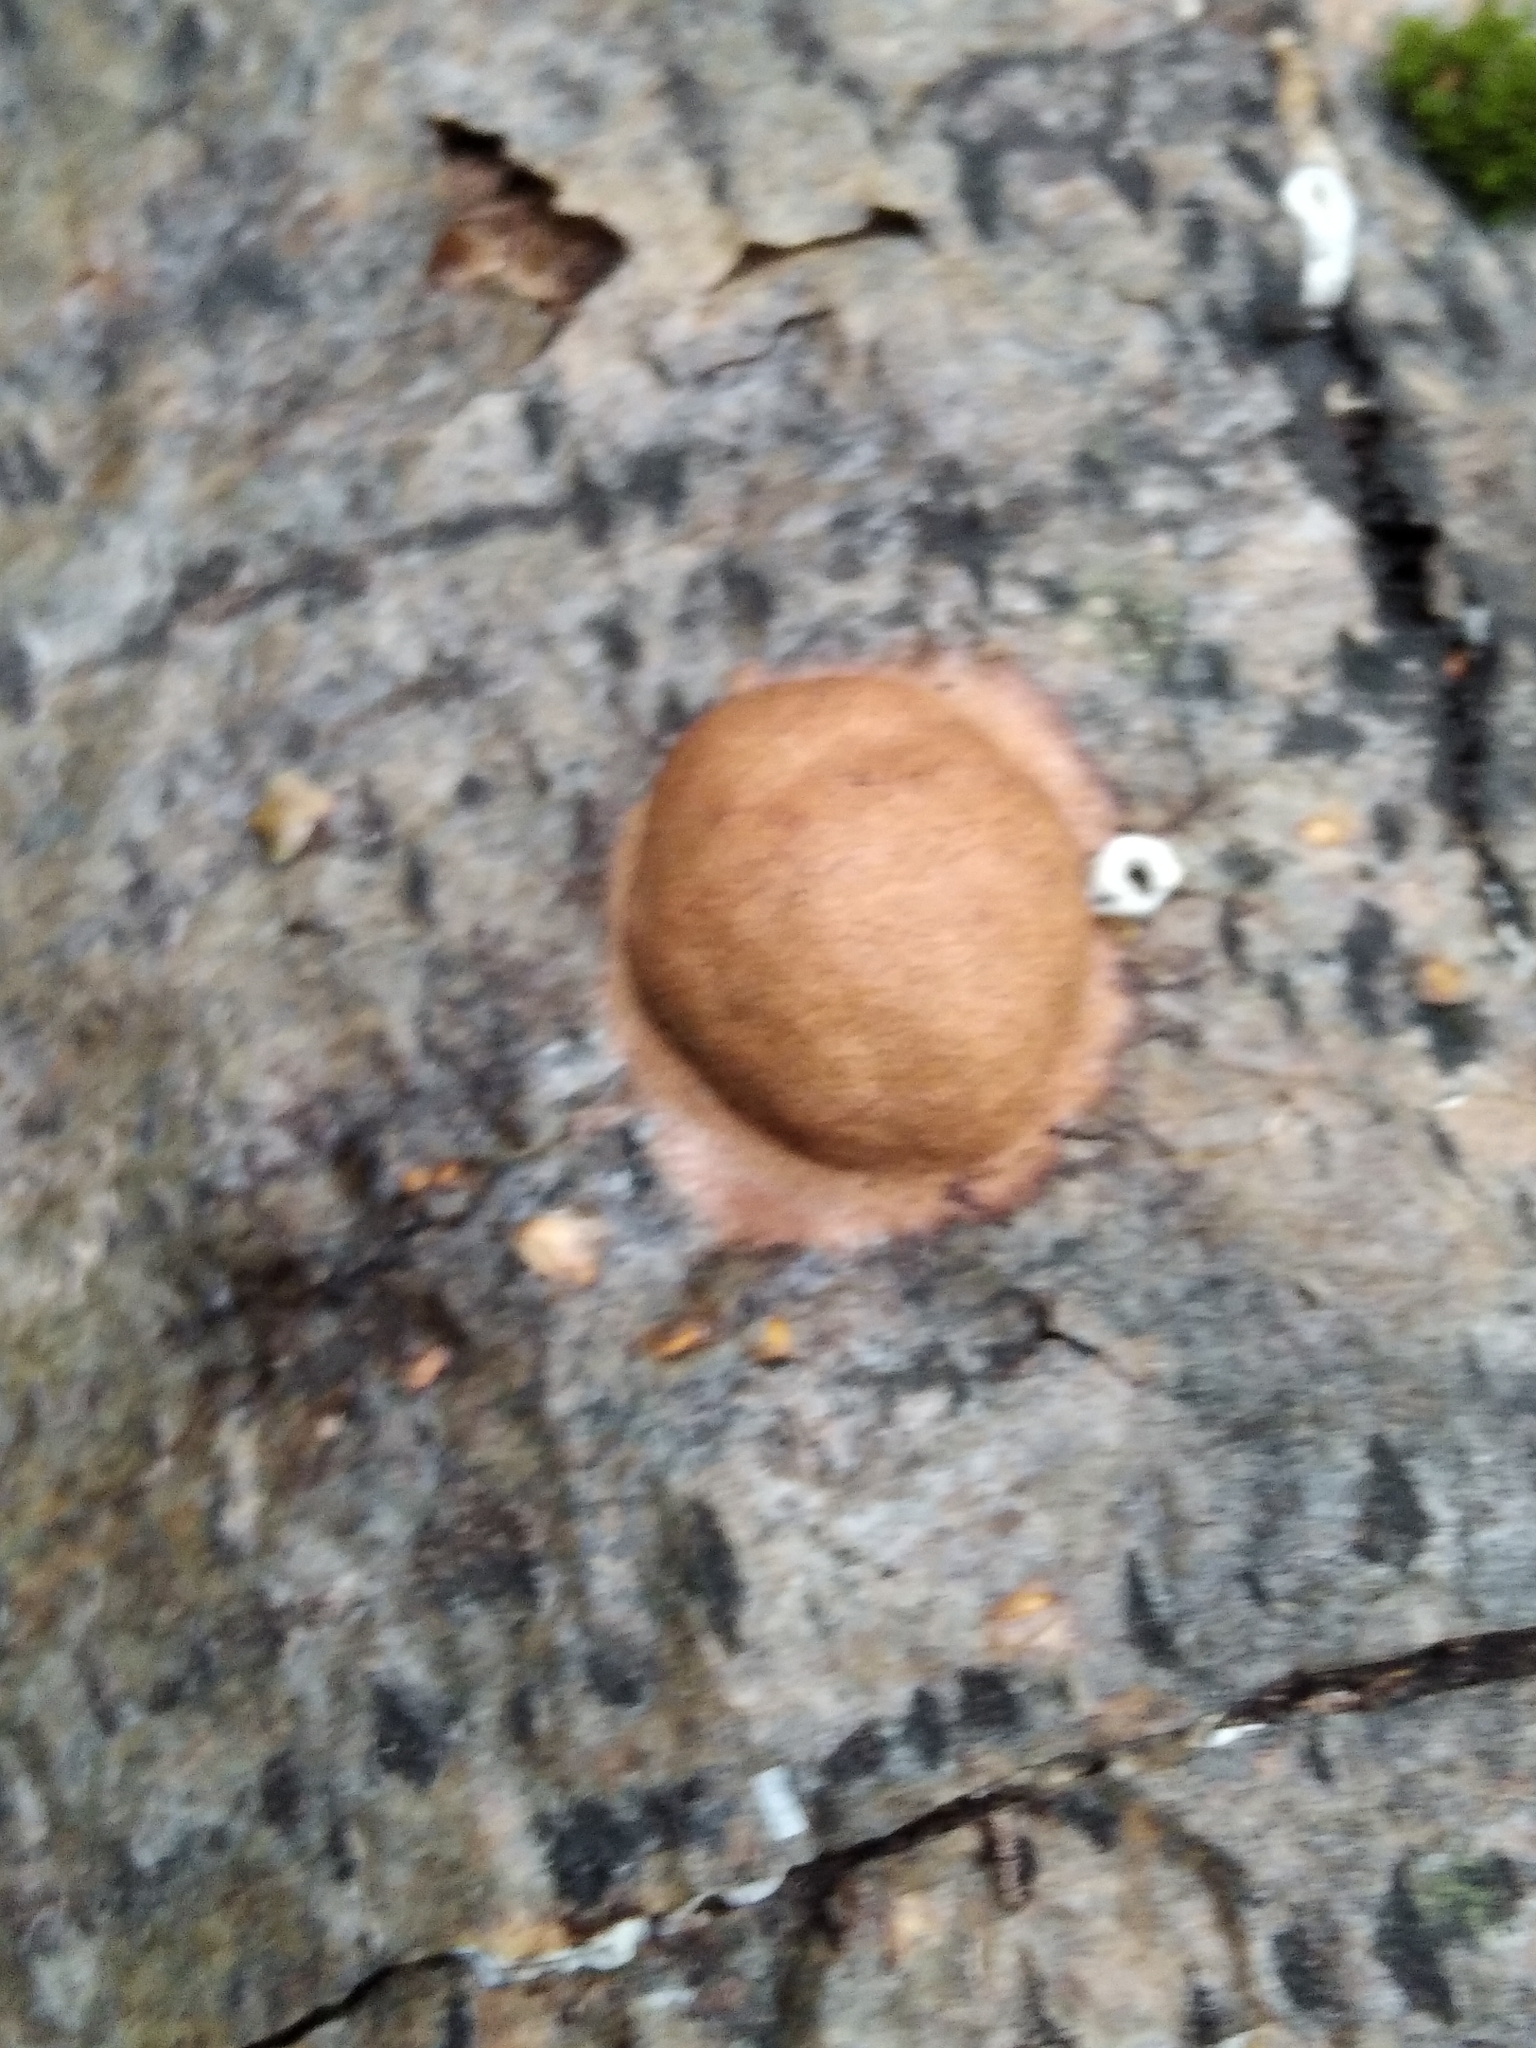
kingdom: Protozoa
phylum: Mycetozoa
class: Myxomycetes
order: Physarales
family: Physaraceae
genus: Fuligo
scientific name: Fuligo leviderma
